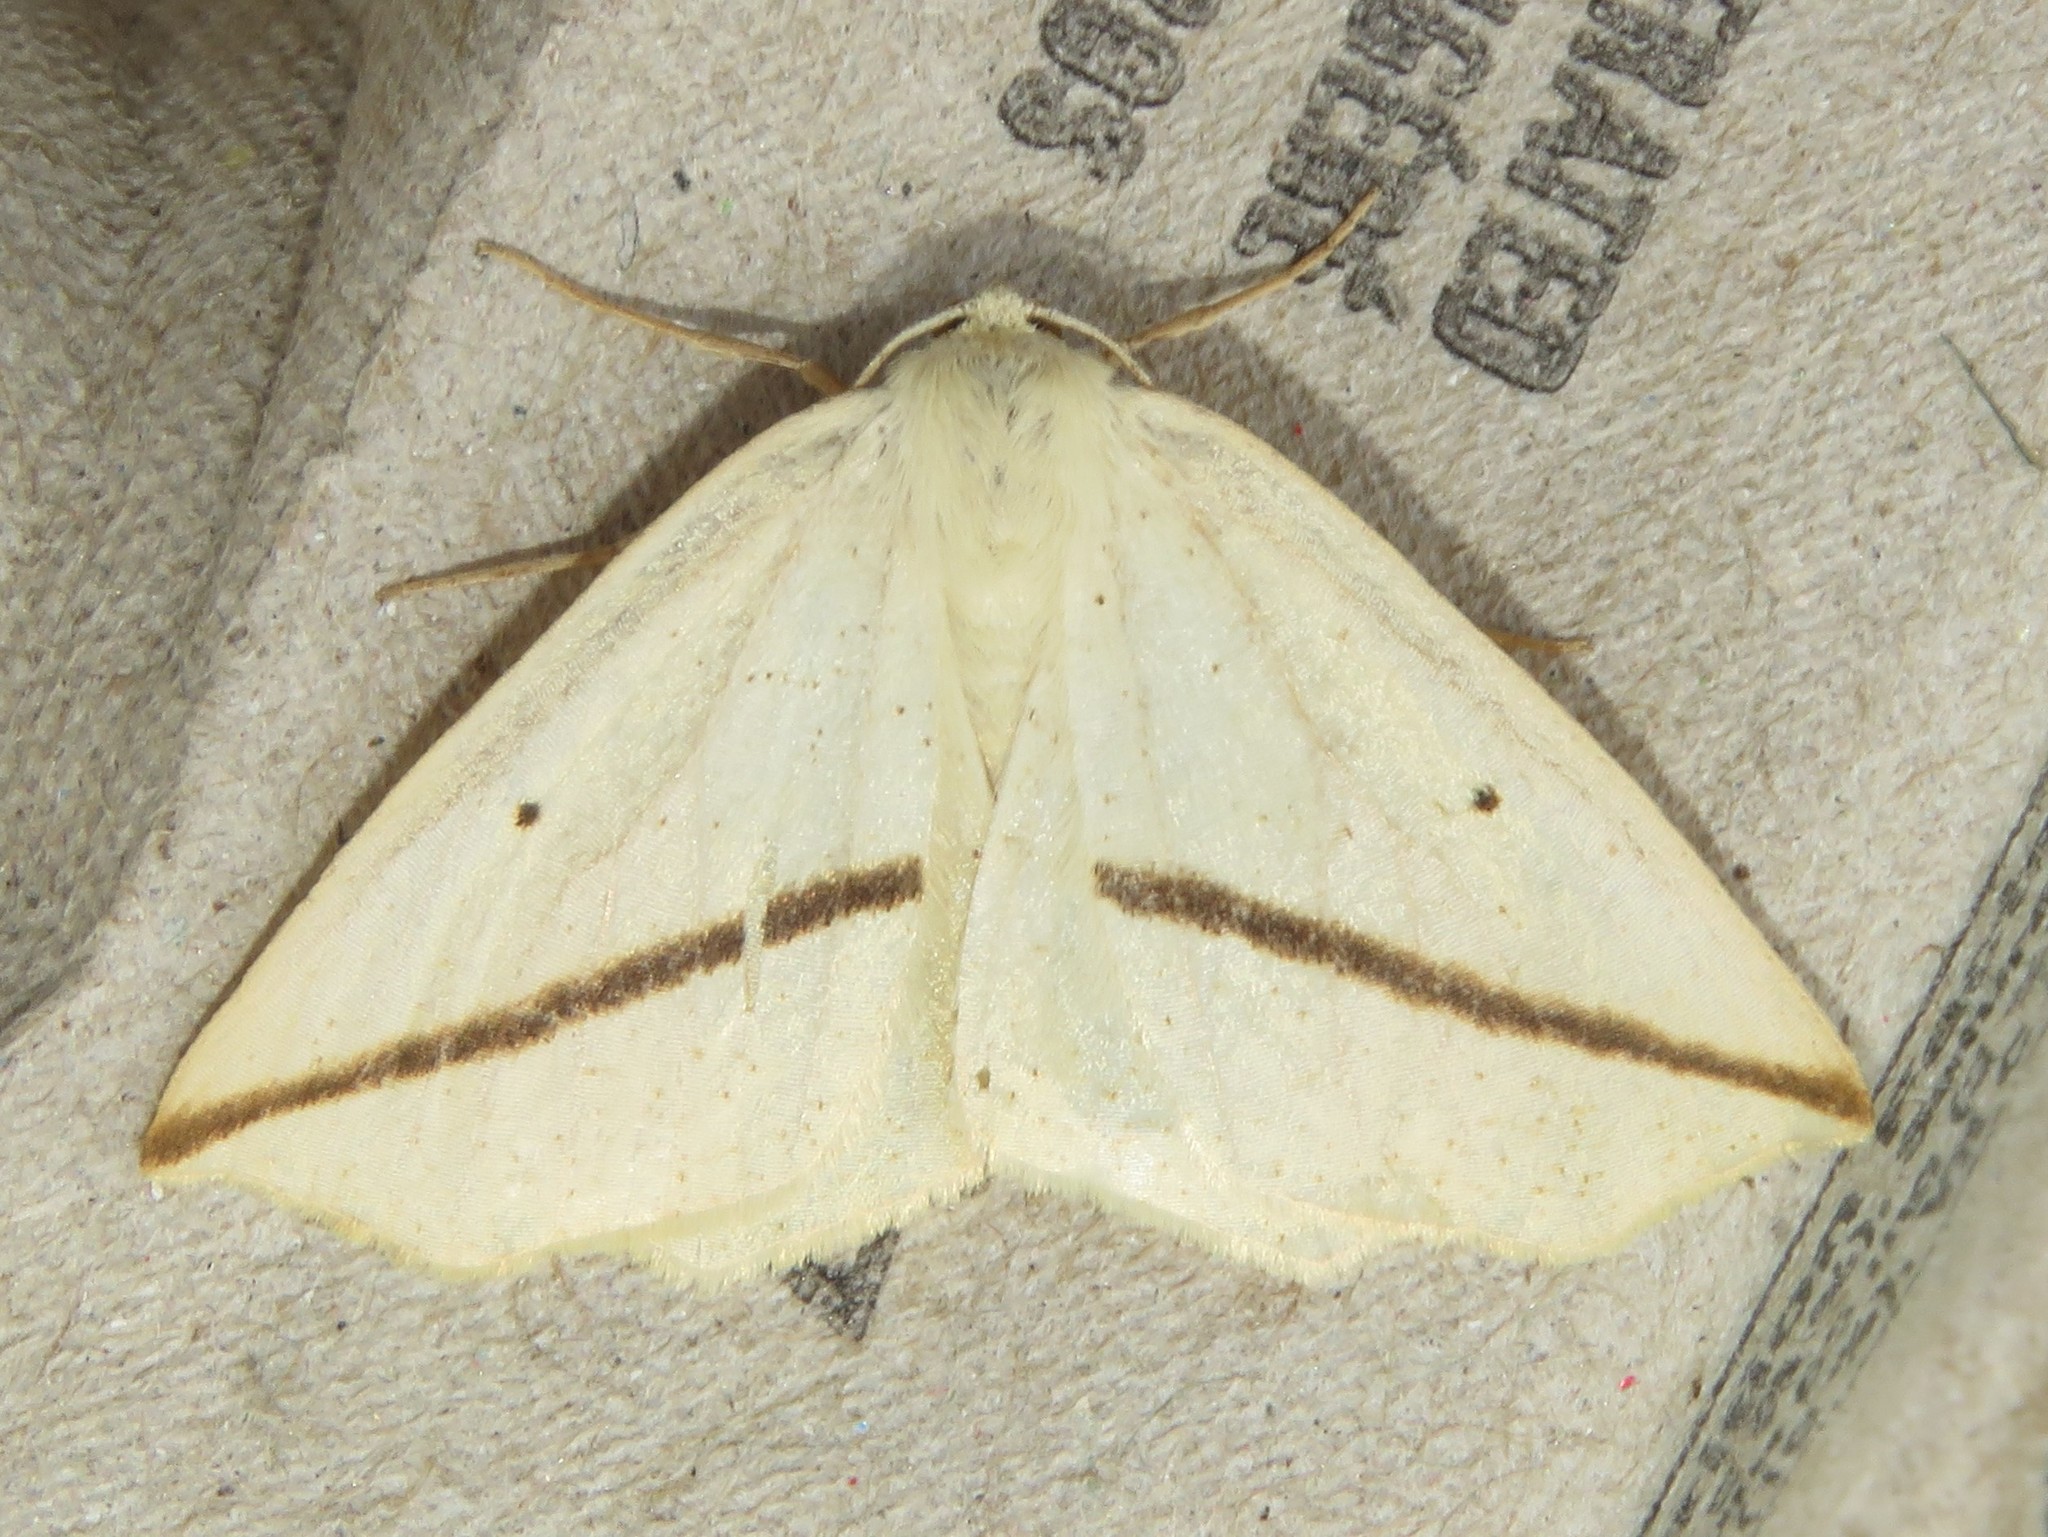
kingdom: Animalia
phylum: Arthropoda
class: Insecta
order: Lepidoptera
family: Geometridae
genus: Tetracis
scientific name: Tetracis crocallata
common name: Yellow slant-line
